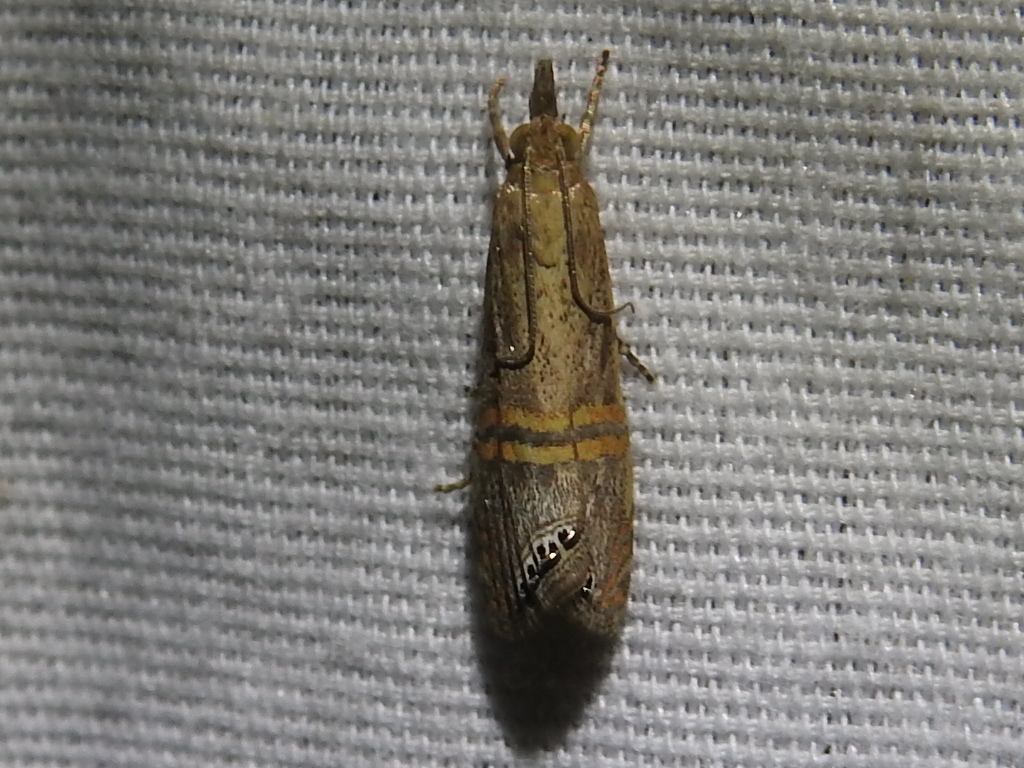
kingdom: Animalia
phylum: Arthropoda
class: Insecta
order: Lepidoptera
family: Crambidae
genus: Euchromius
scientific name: Euchromius ocellea
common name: Necklace veneer moth
